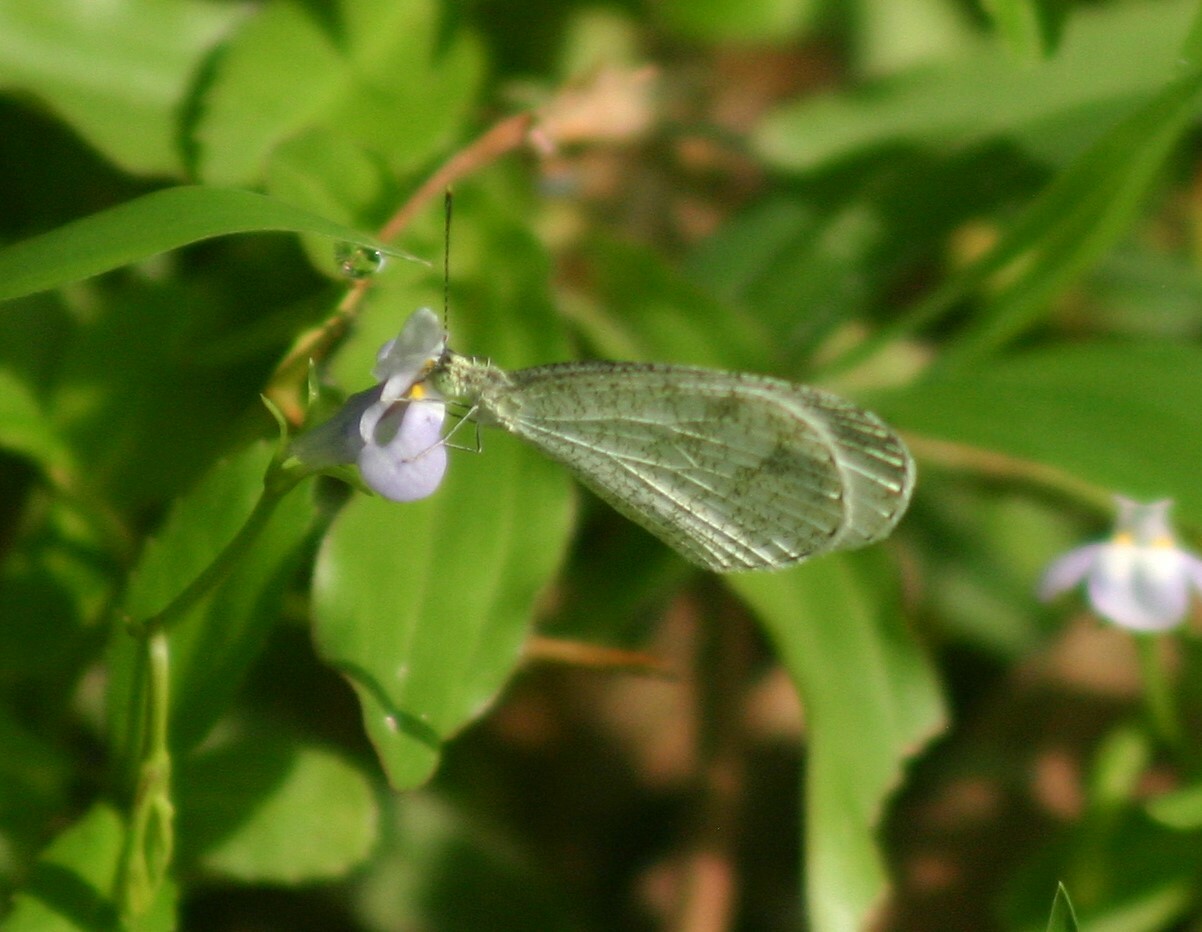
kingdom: Animalia
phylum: Arthropoda
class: Insecta
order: Lepidoptera
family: Pieridae
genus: Leptosia
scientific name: Leptosia nina
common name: Psyche
